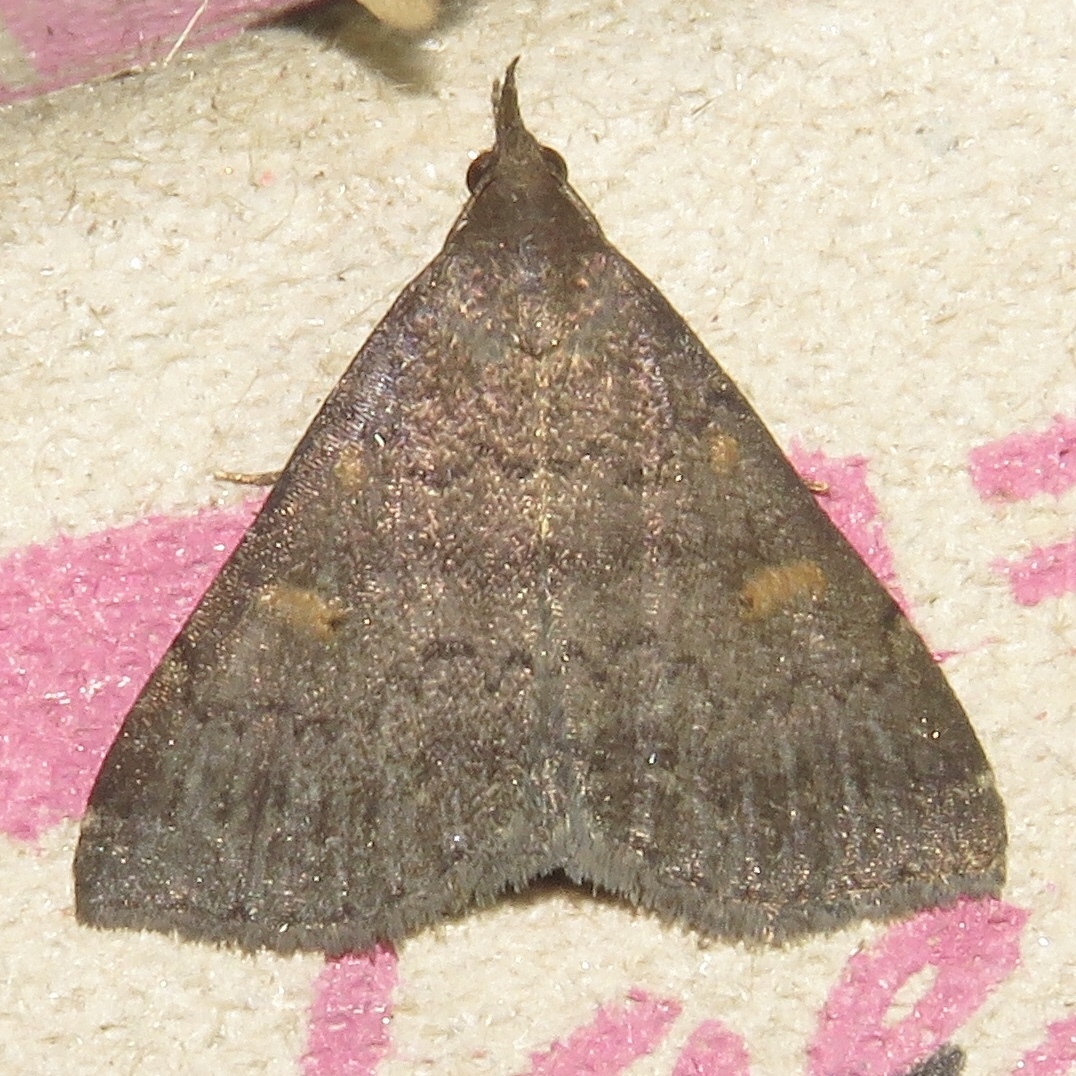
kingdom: Animalia
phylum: Arthropoda
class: Insecta
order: Lepidoptera
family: Erebidae
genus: Renia
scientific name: Renia sobrialis
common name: Sober renia moth
